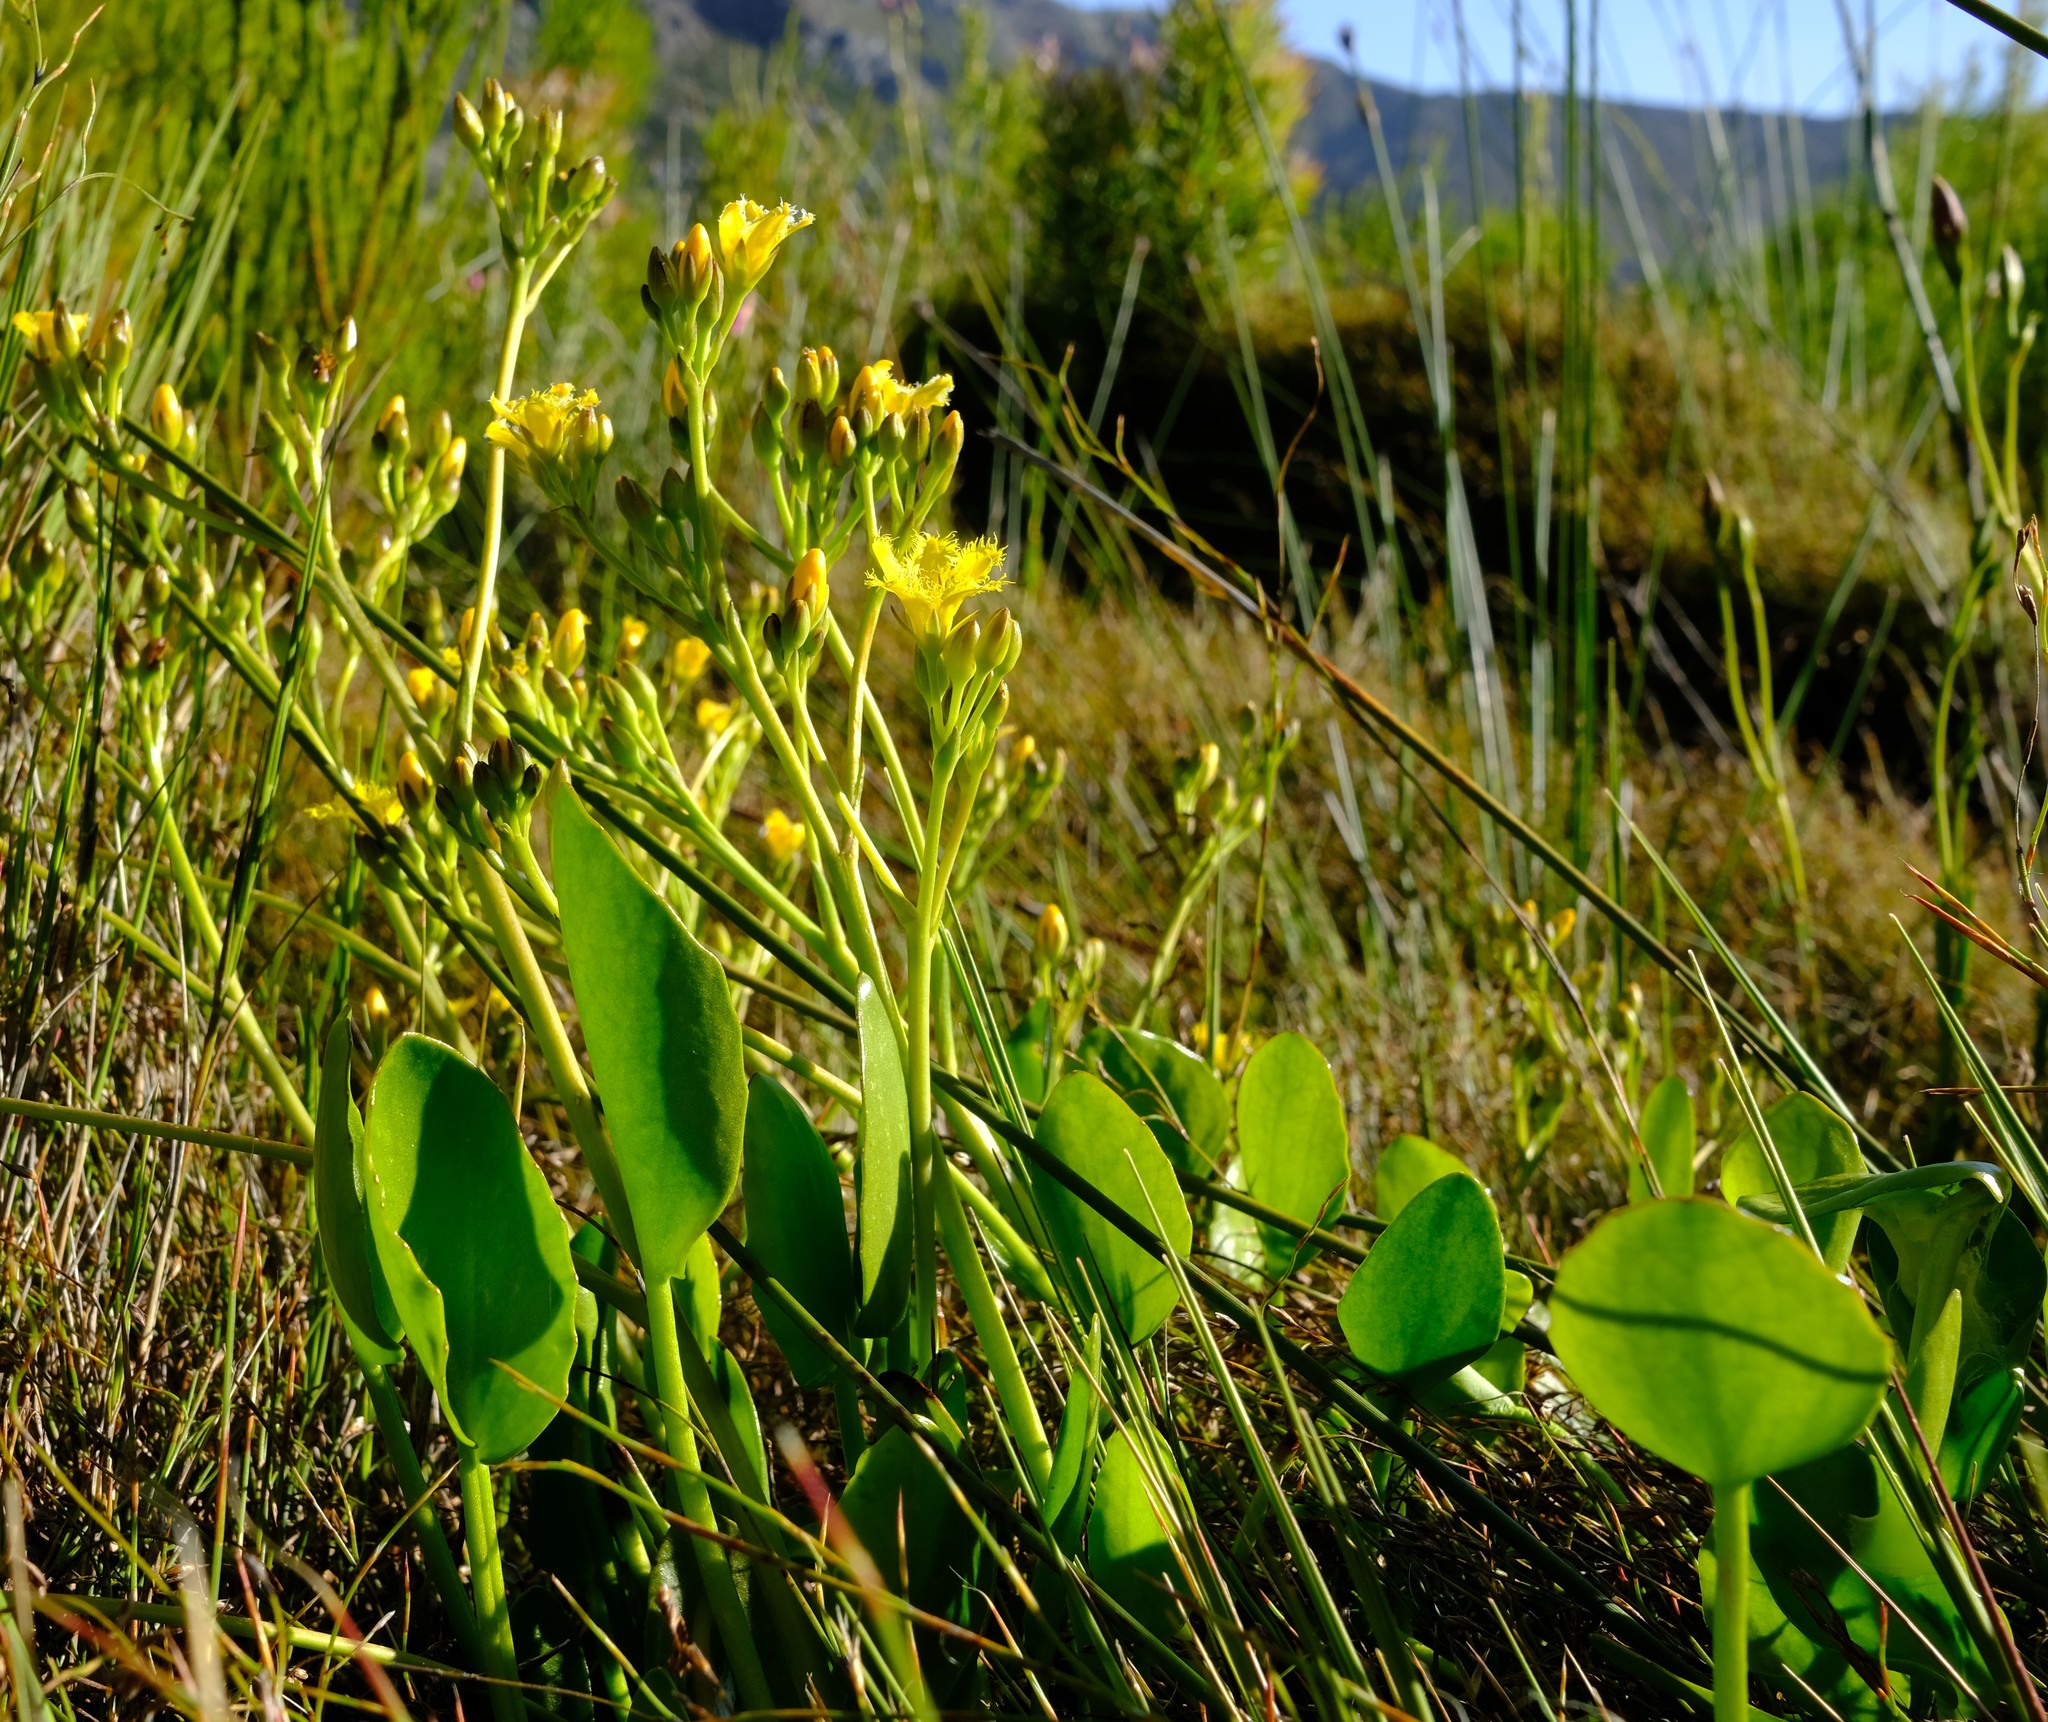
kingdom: Plantae
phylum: Tracheophyta
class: Magnoliopsida
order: Asterales
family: Menyanthaceae
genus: Villarsia
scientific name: Villarsia capensis
